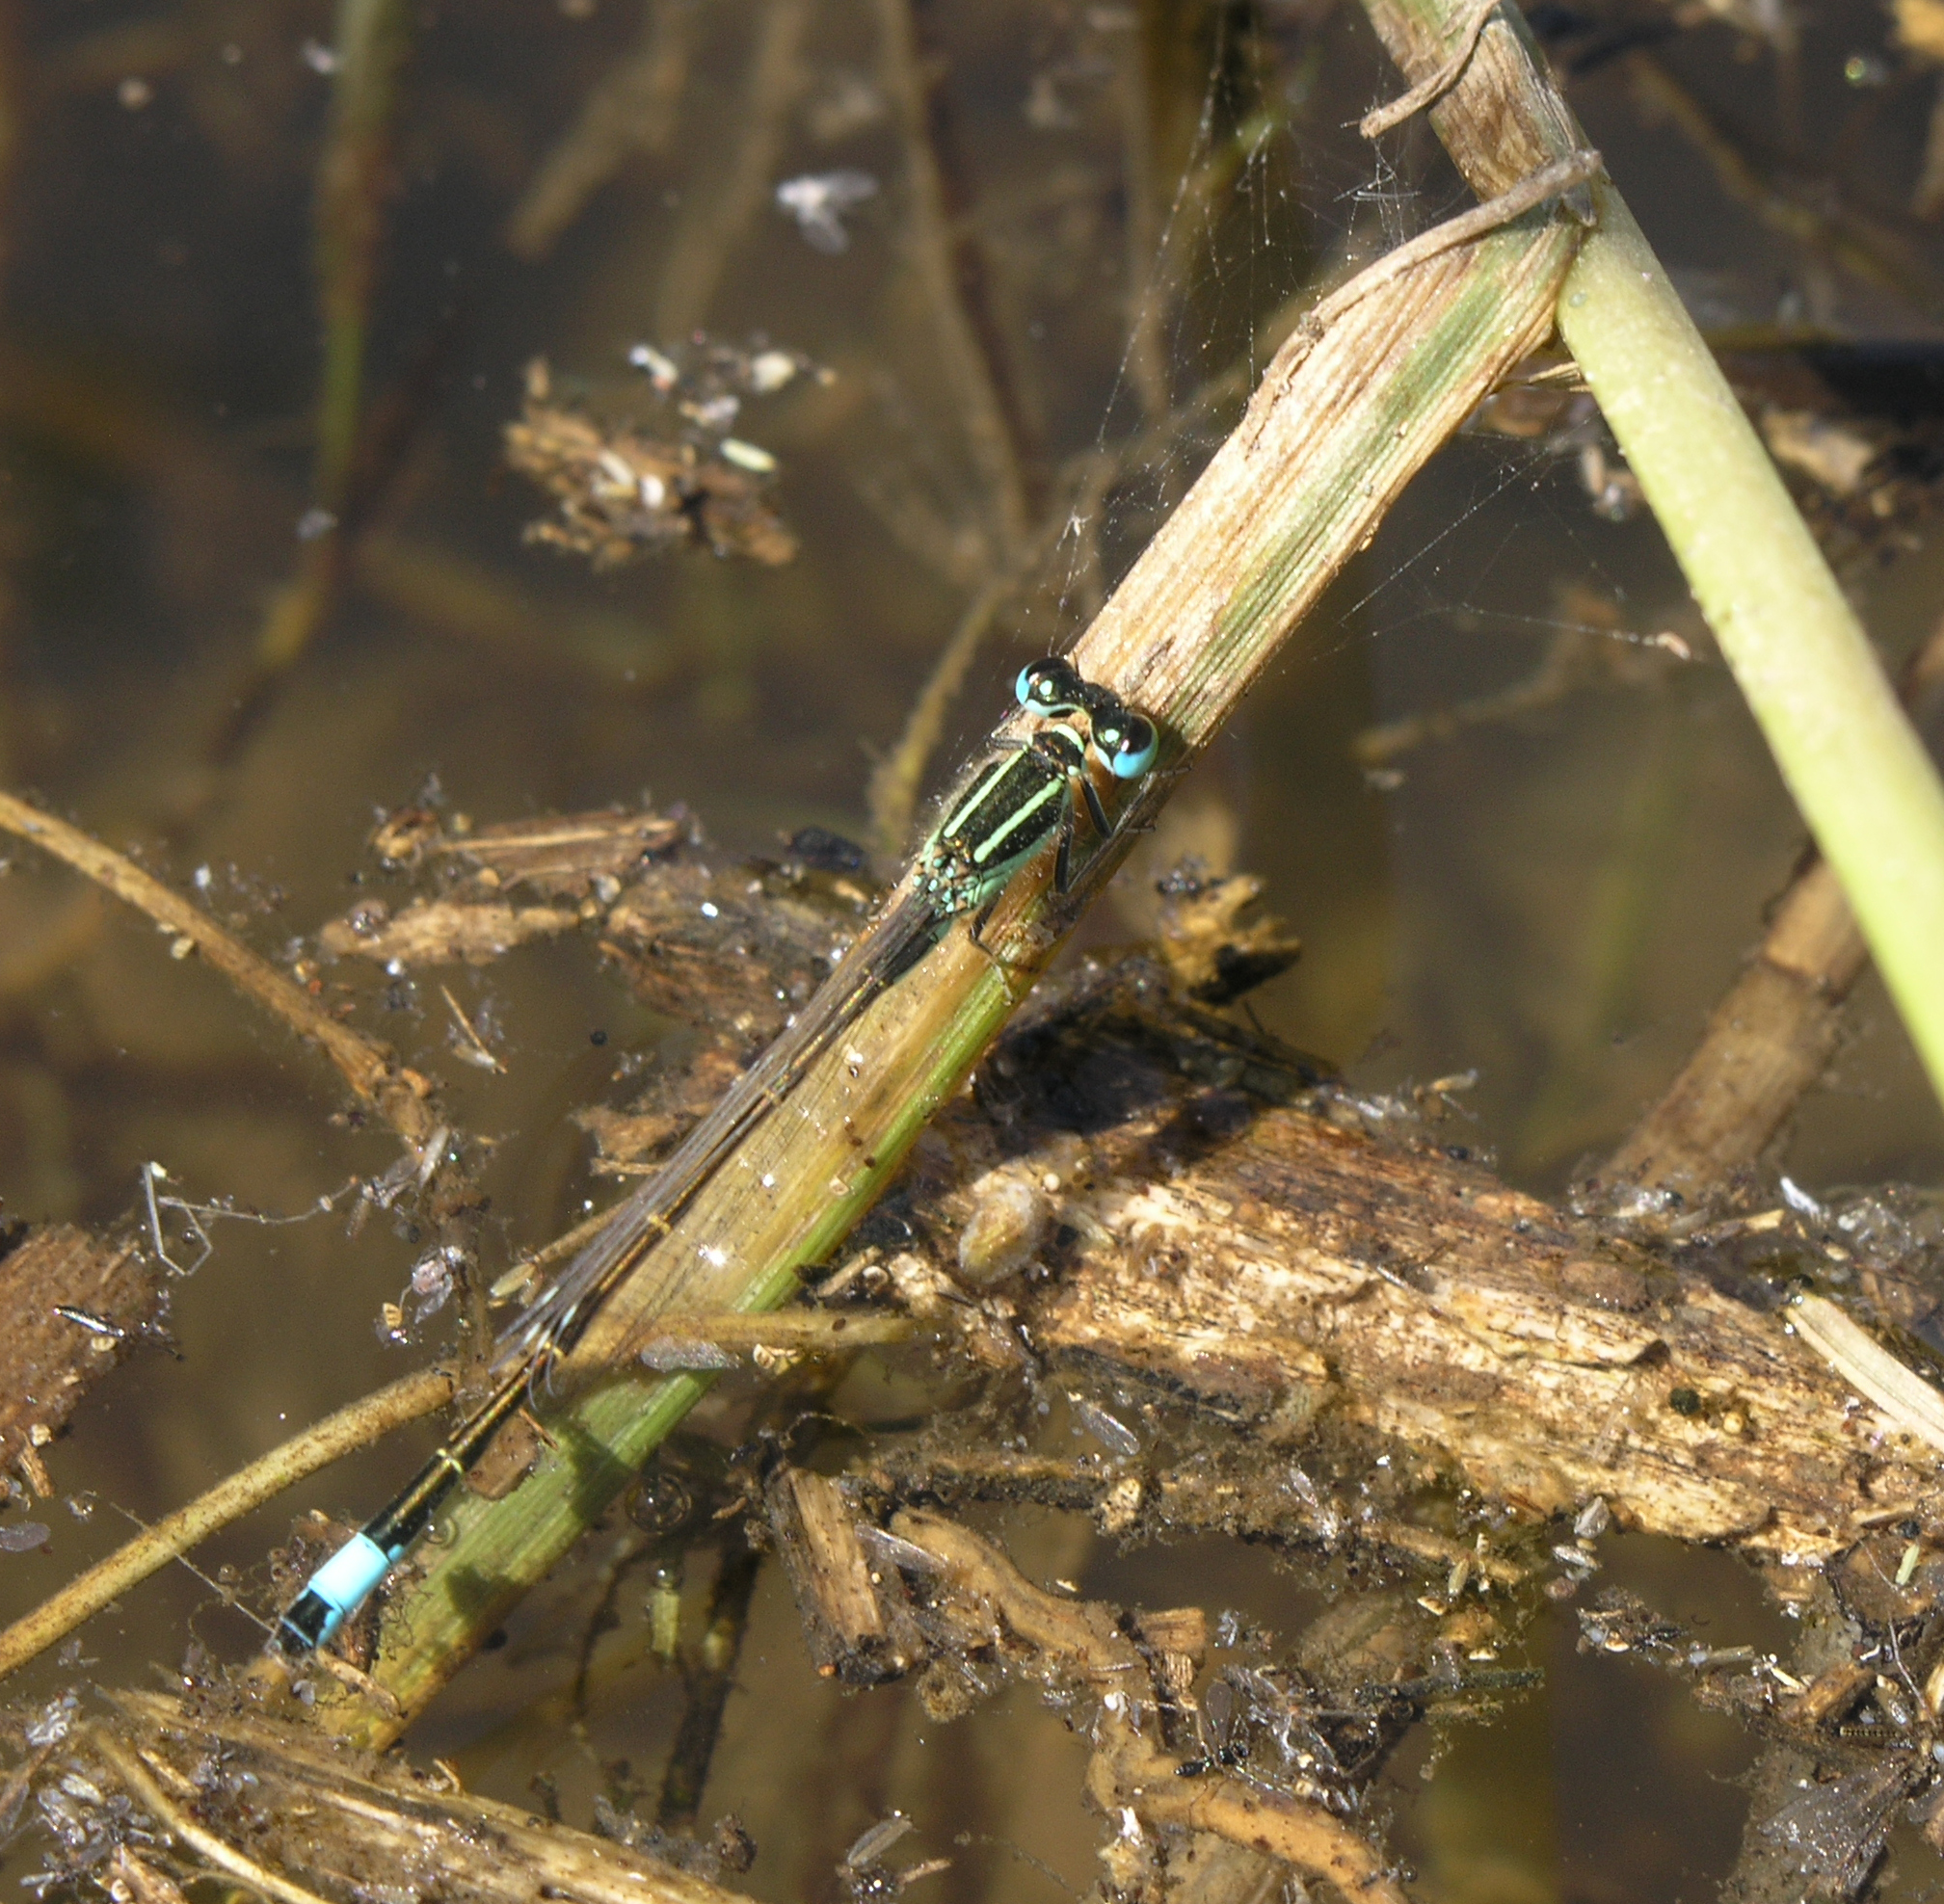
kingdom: Animalia
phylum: Arthropoda
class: Insecta
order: Odonata
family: Coenagrionidae
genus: Ischnura
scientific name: Ischnura graellsii
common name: Iberian bluetail
